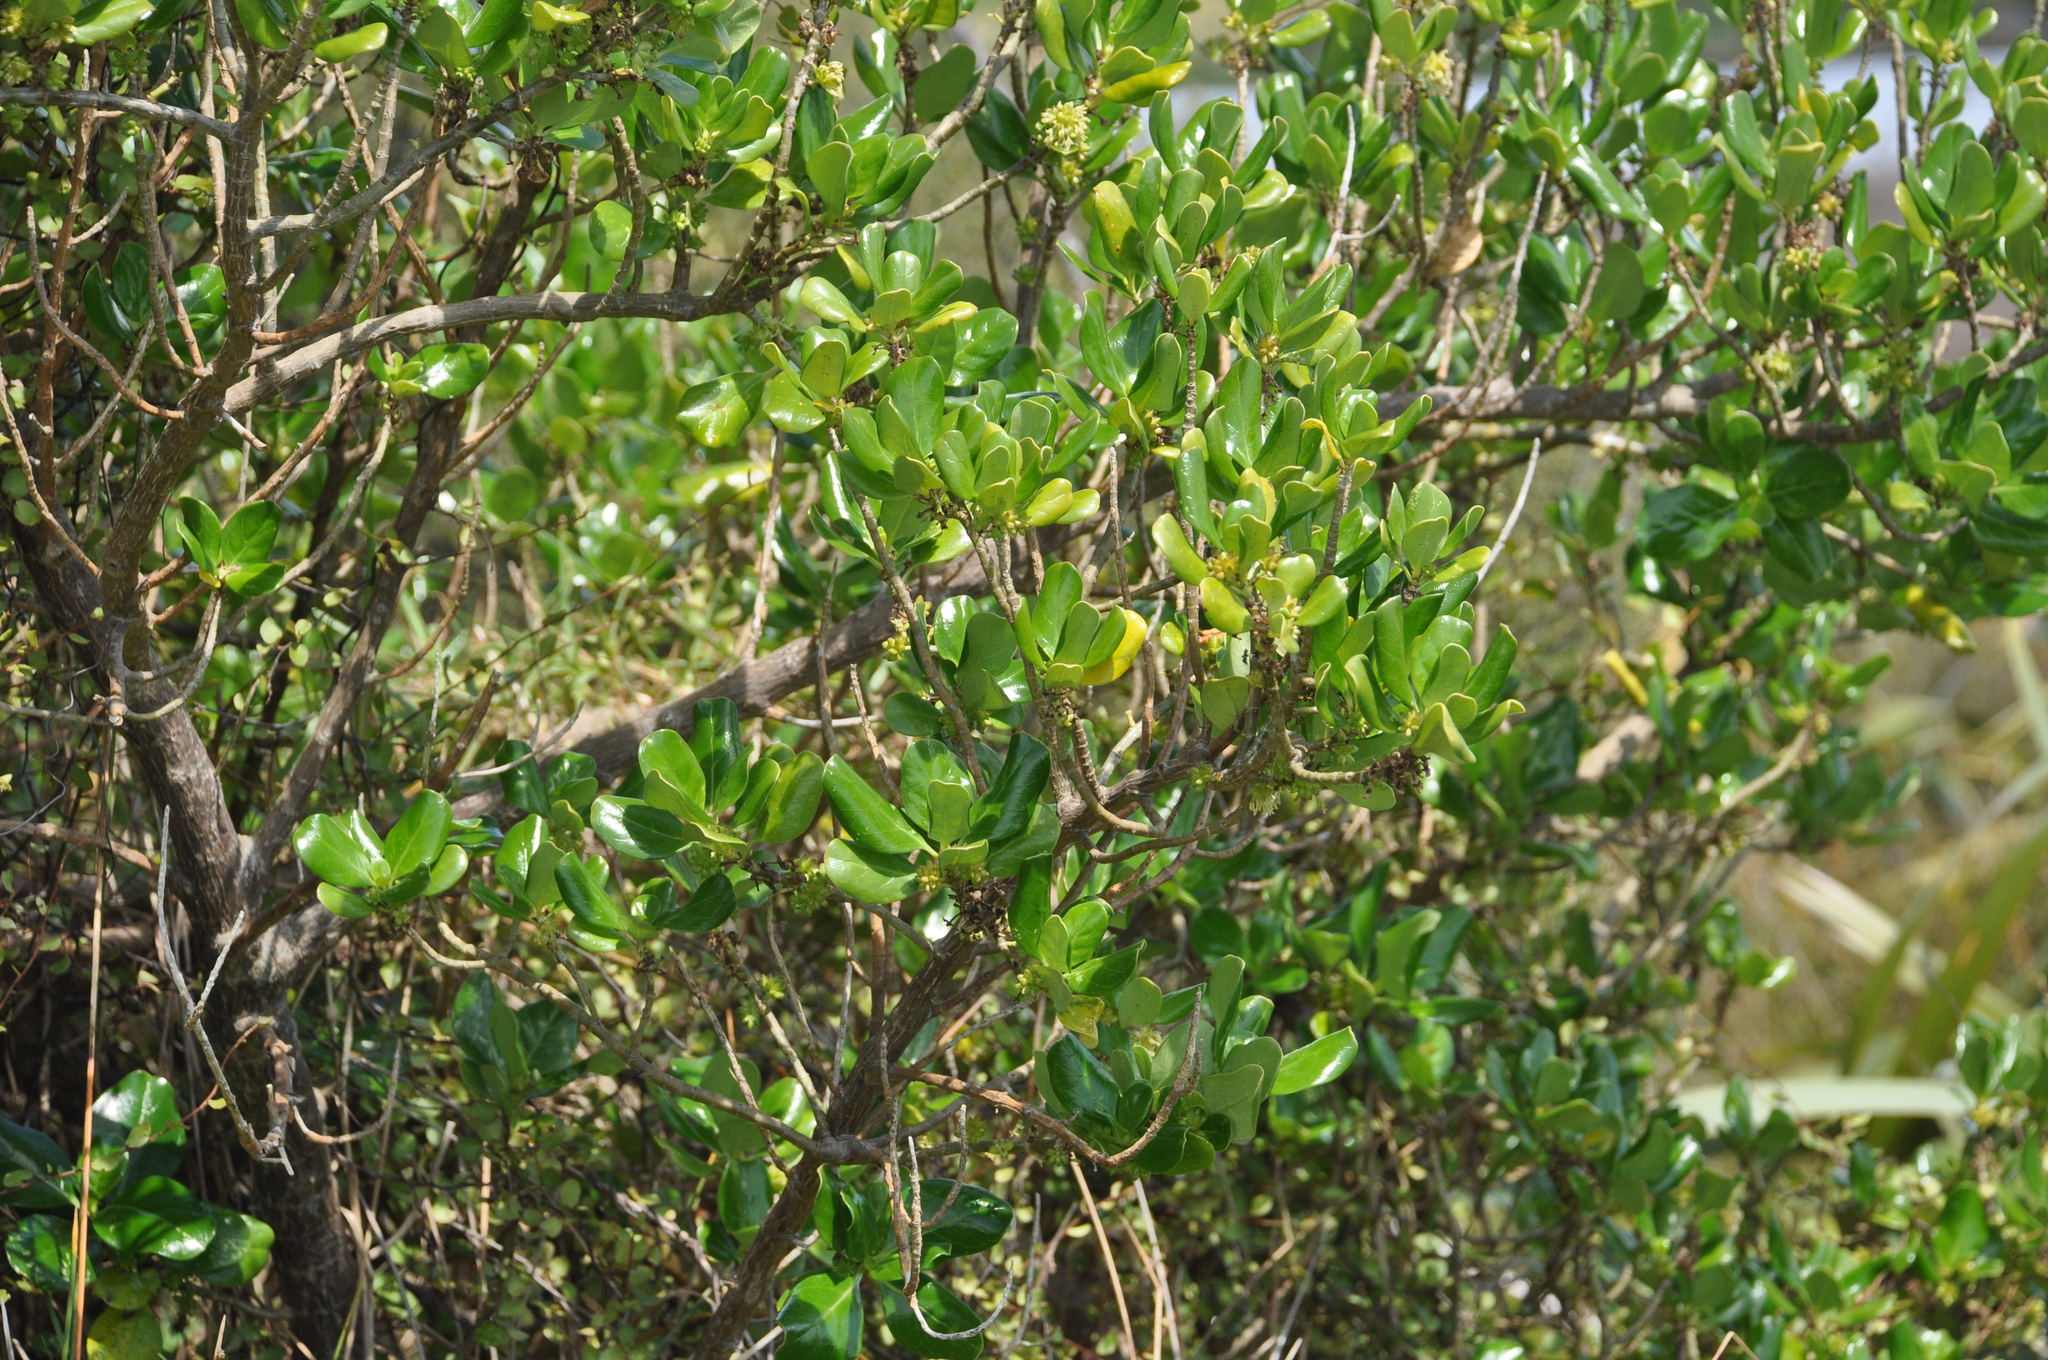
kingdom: Plantae
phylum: Tracheophyta
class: Magnoliopsida
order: Gentianales
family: Rubiaceae
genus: Coprosma
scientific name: Coprosma repens
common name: Tree bedstraw
